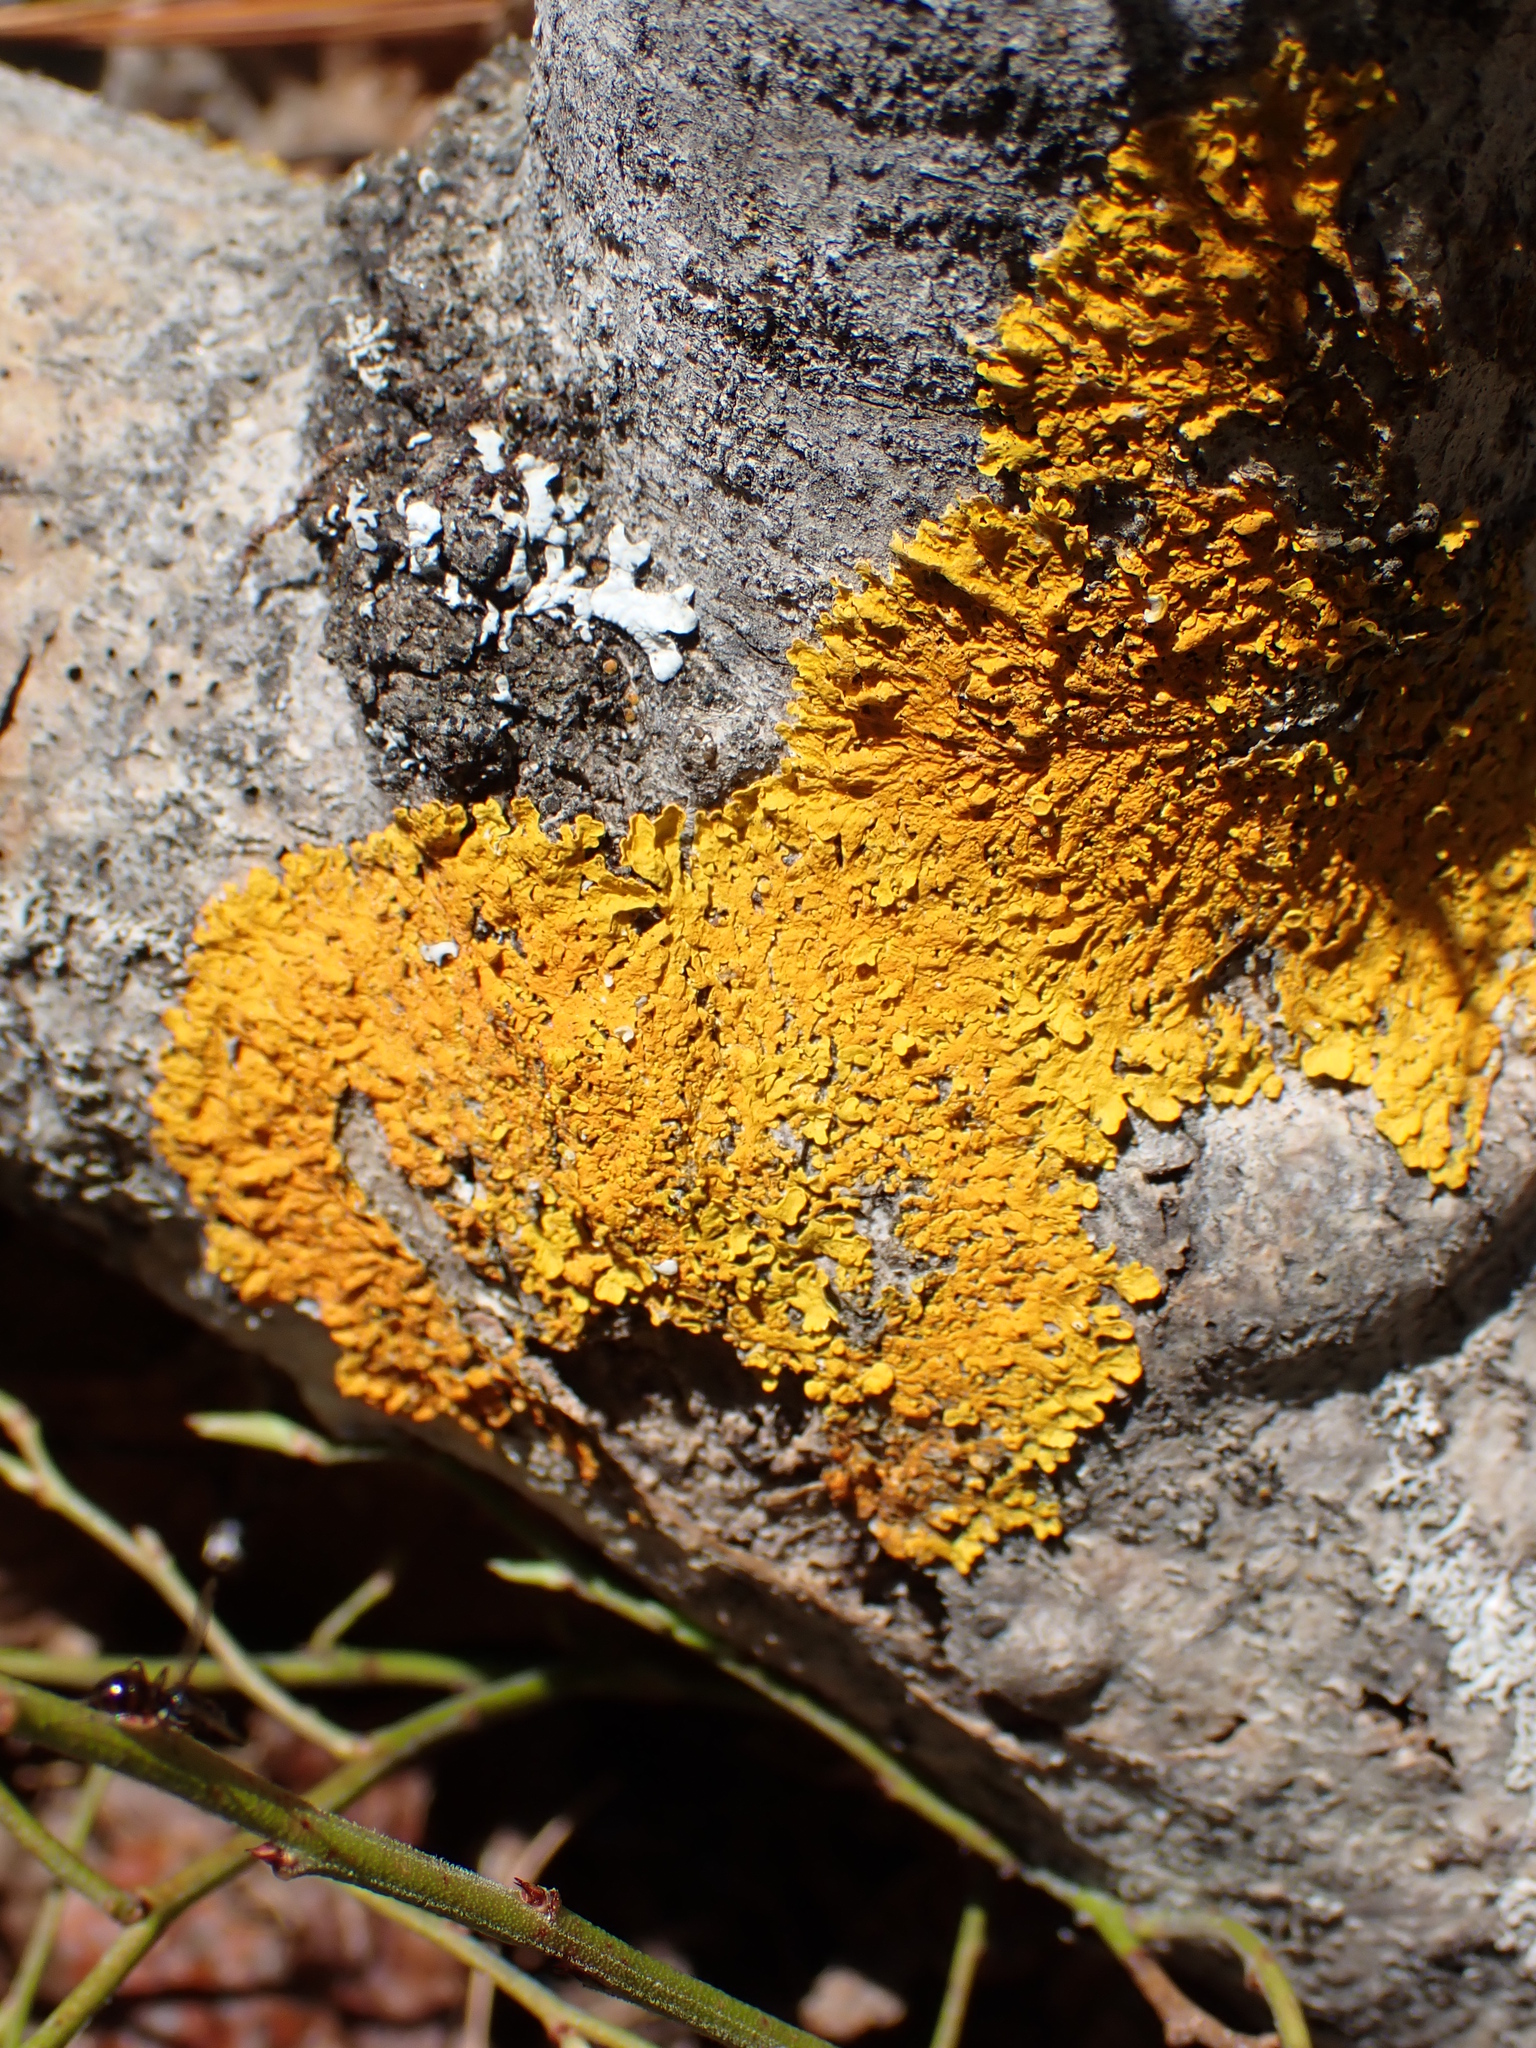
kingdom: Fungi
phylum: Ascomycota
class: Lecanoromycetes
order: Teloschistales
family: Teloschistaceae
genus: Xanthoria
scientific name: Xanthoria parietina
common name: Common orange lichen
